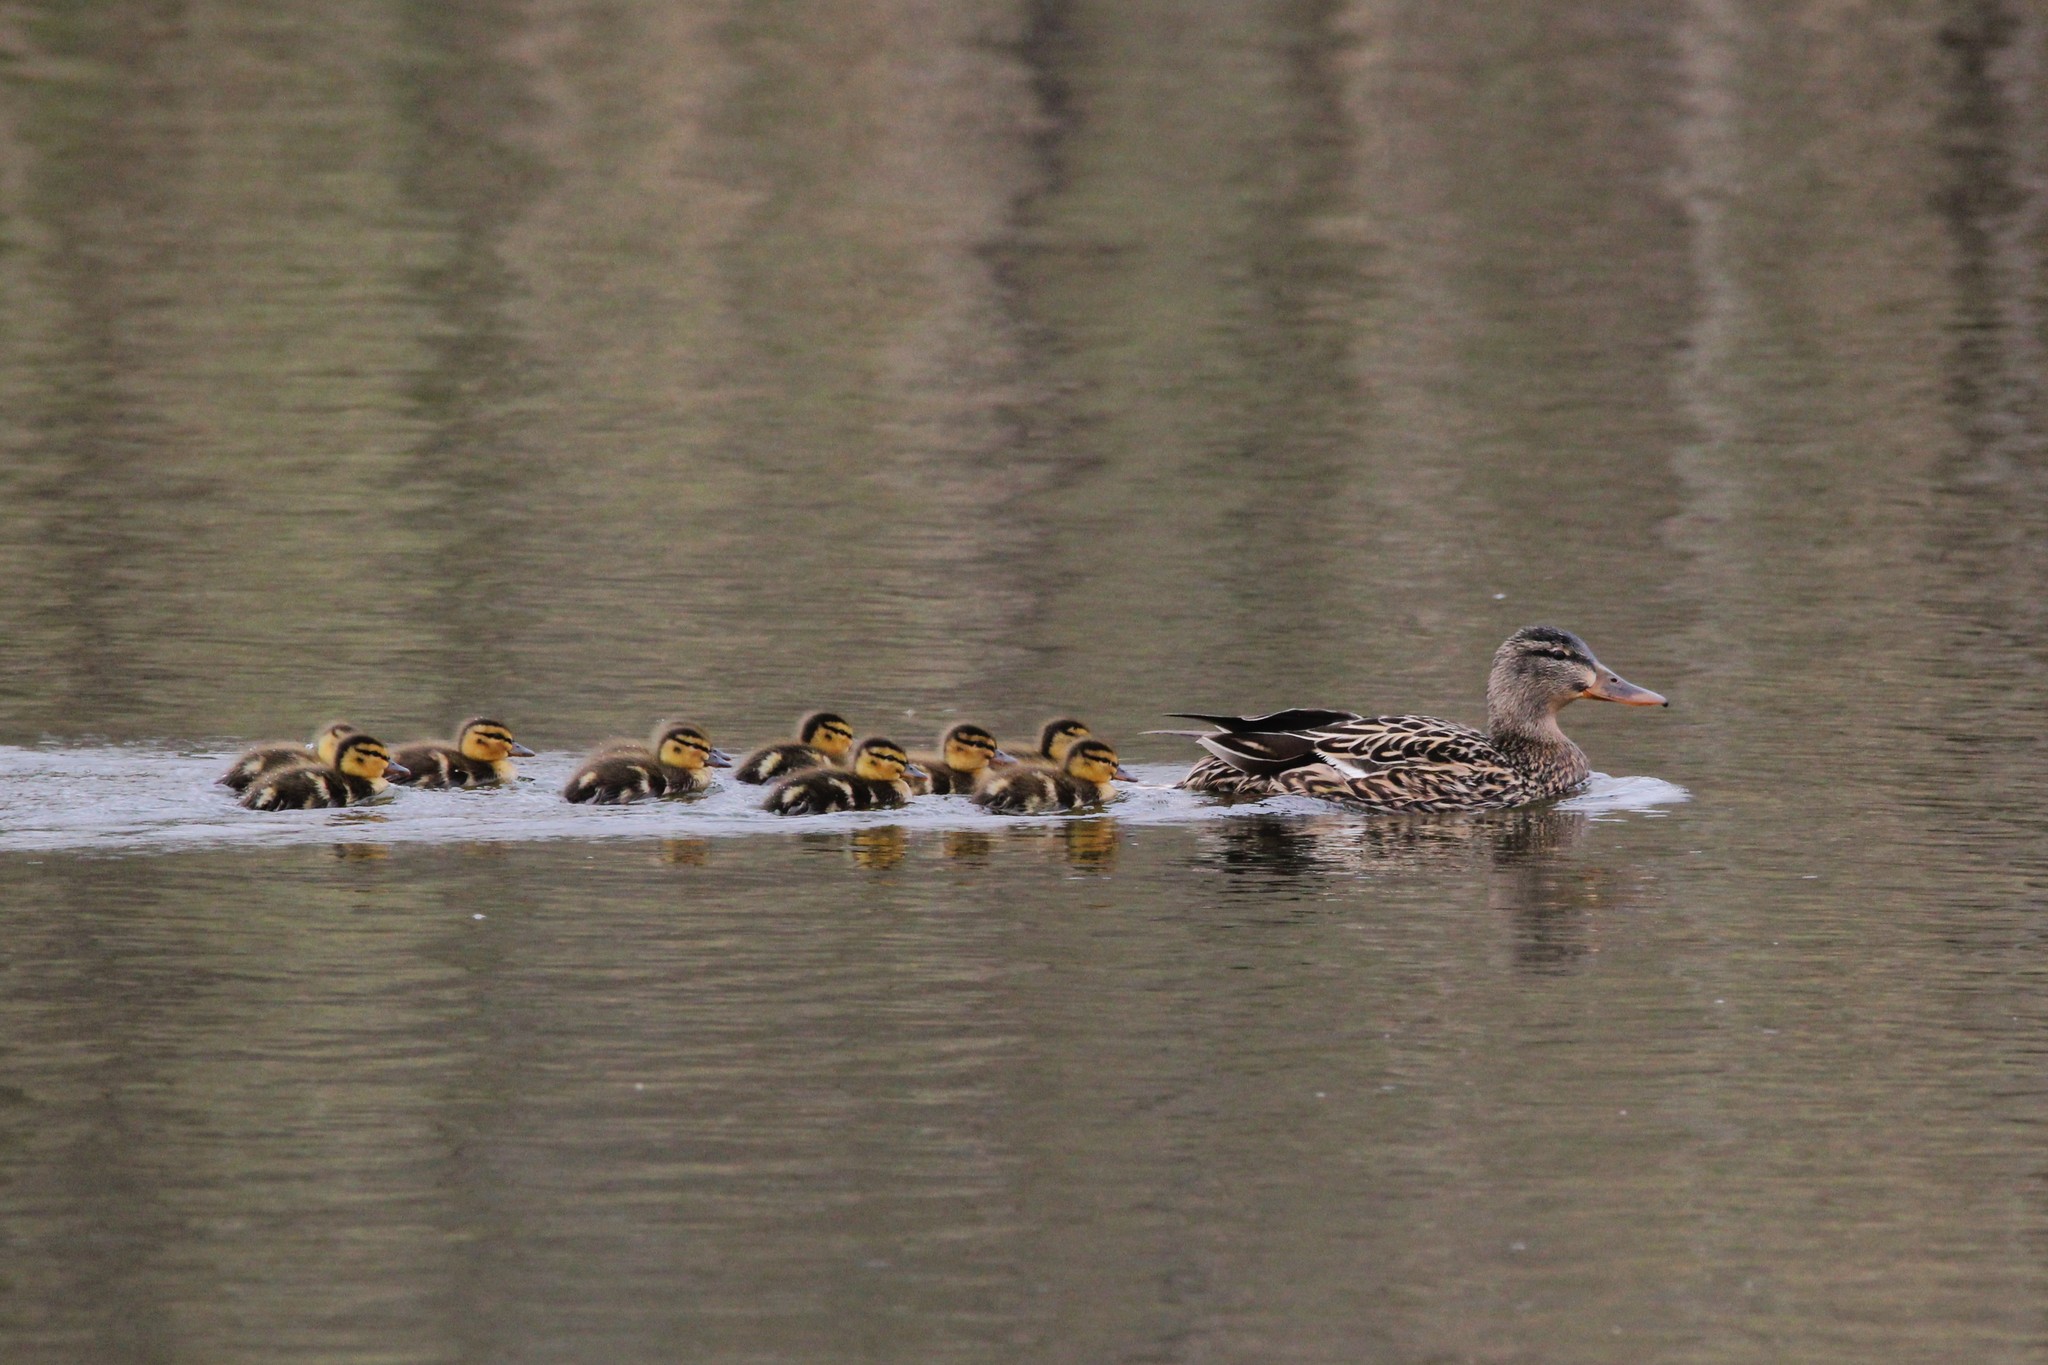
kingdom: Animalia
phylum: Chordata
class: Aves
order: Anseriformes
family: Anatidae
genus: Anas
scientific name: Anas platyrhynchos
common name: Mallard
